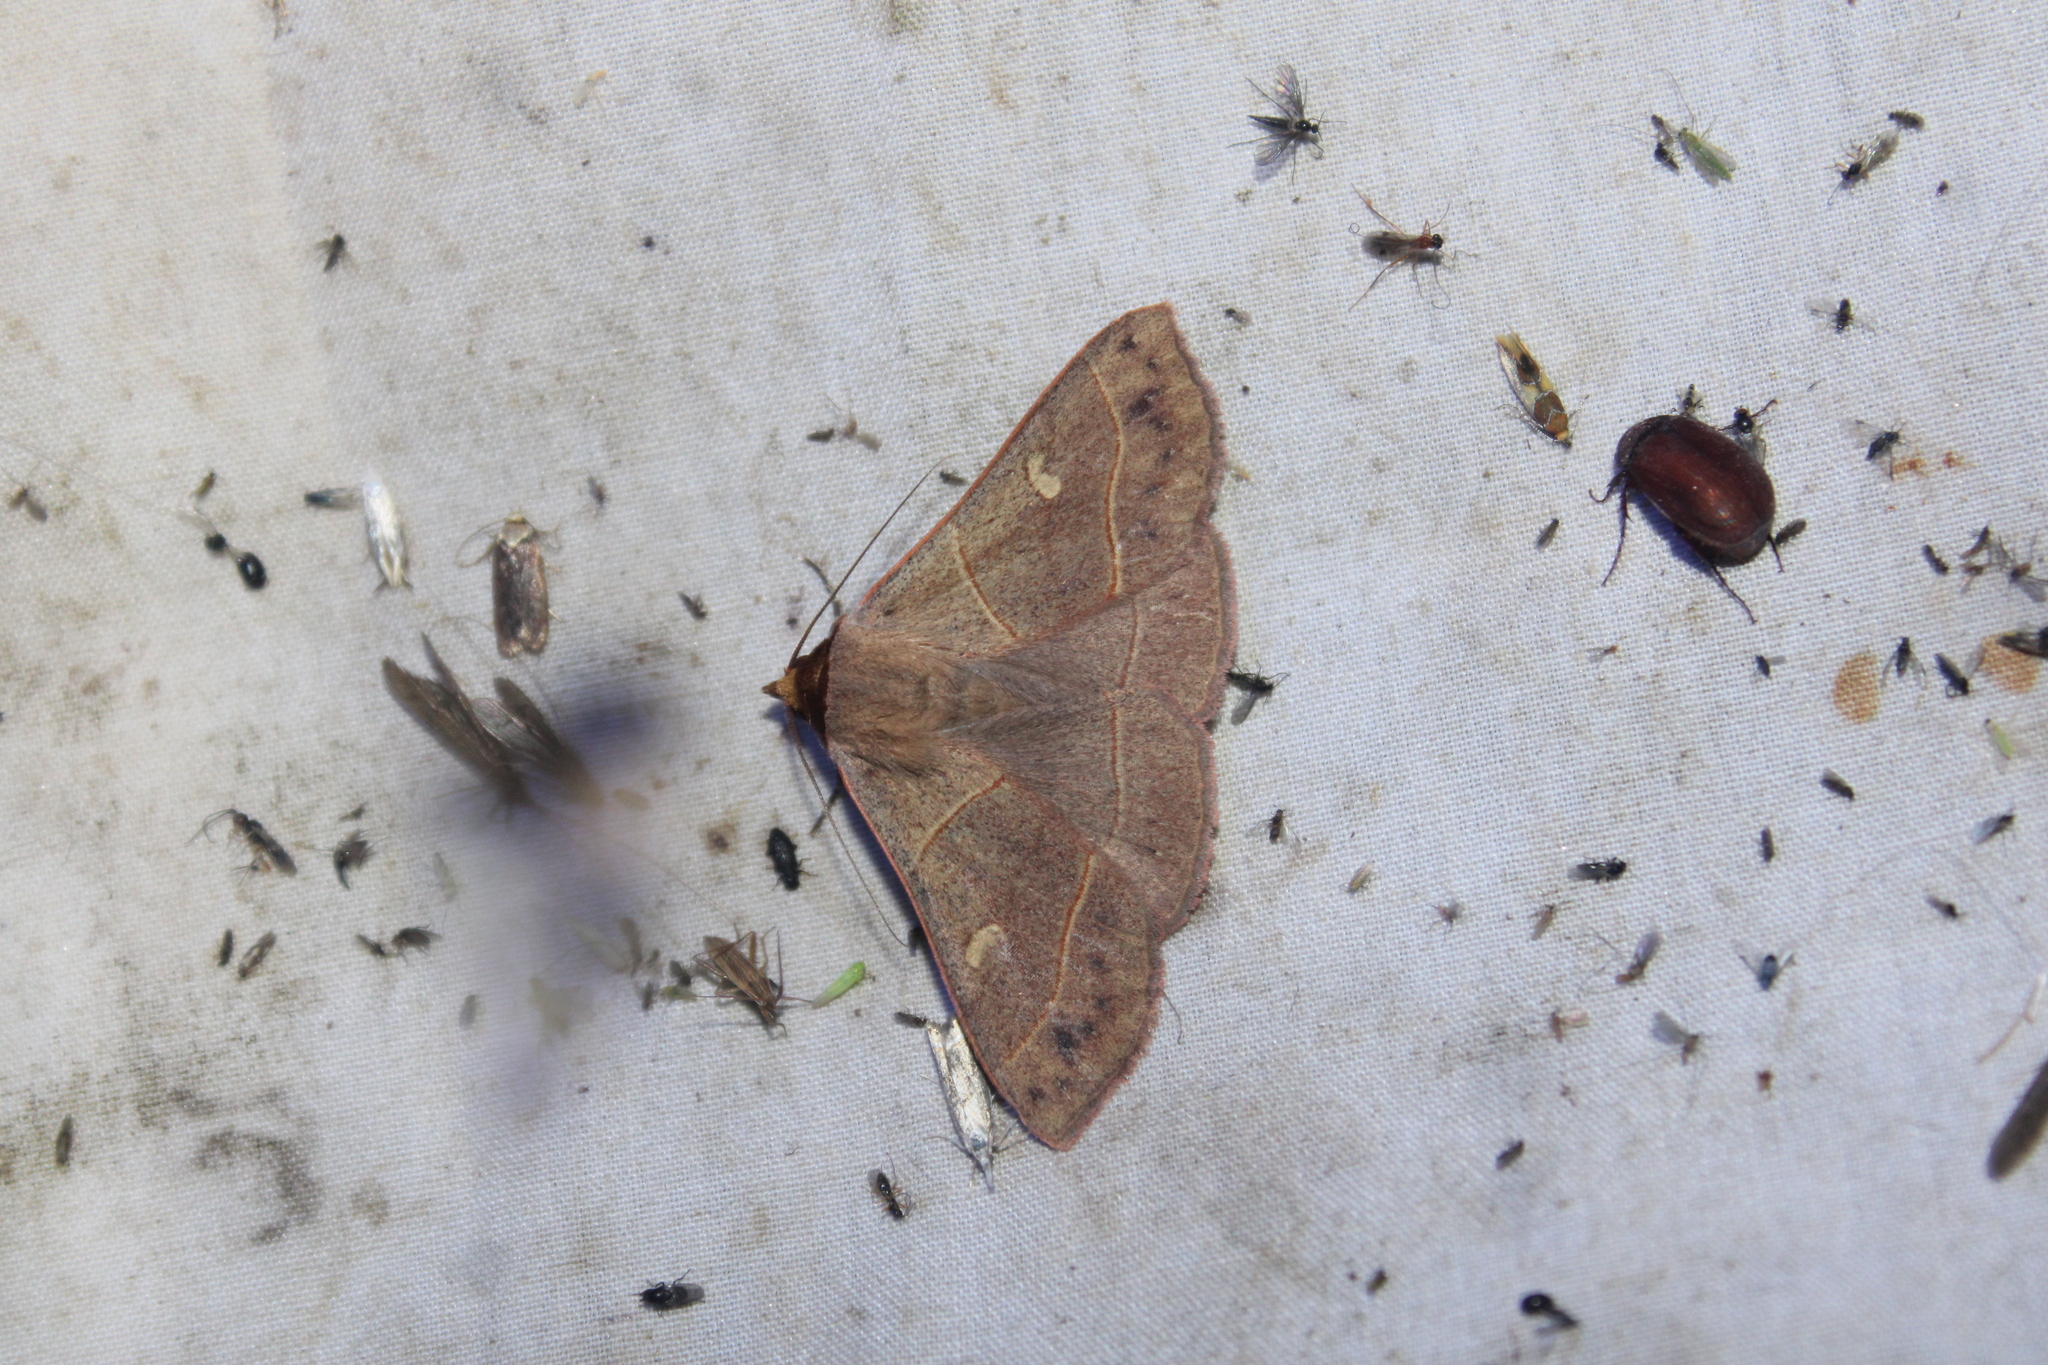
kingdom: Animalia
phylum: Arthropoda
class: Insecta
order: Lepidoptera
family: Erebidae
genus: Panopoda
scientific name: Panopoda rufimargo
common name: Red-lined panopoda moth
